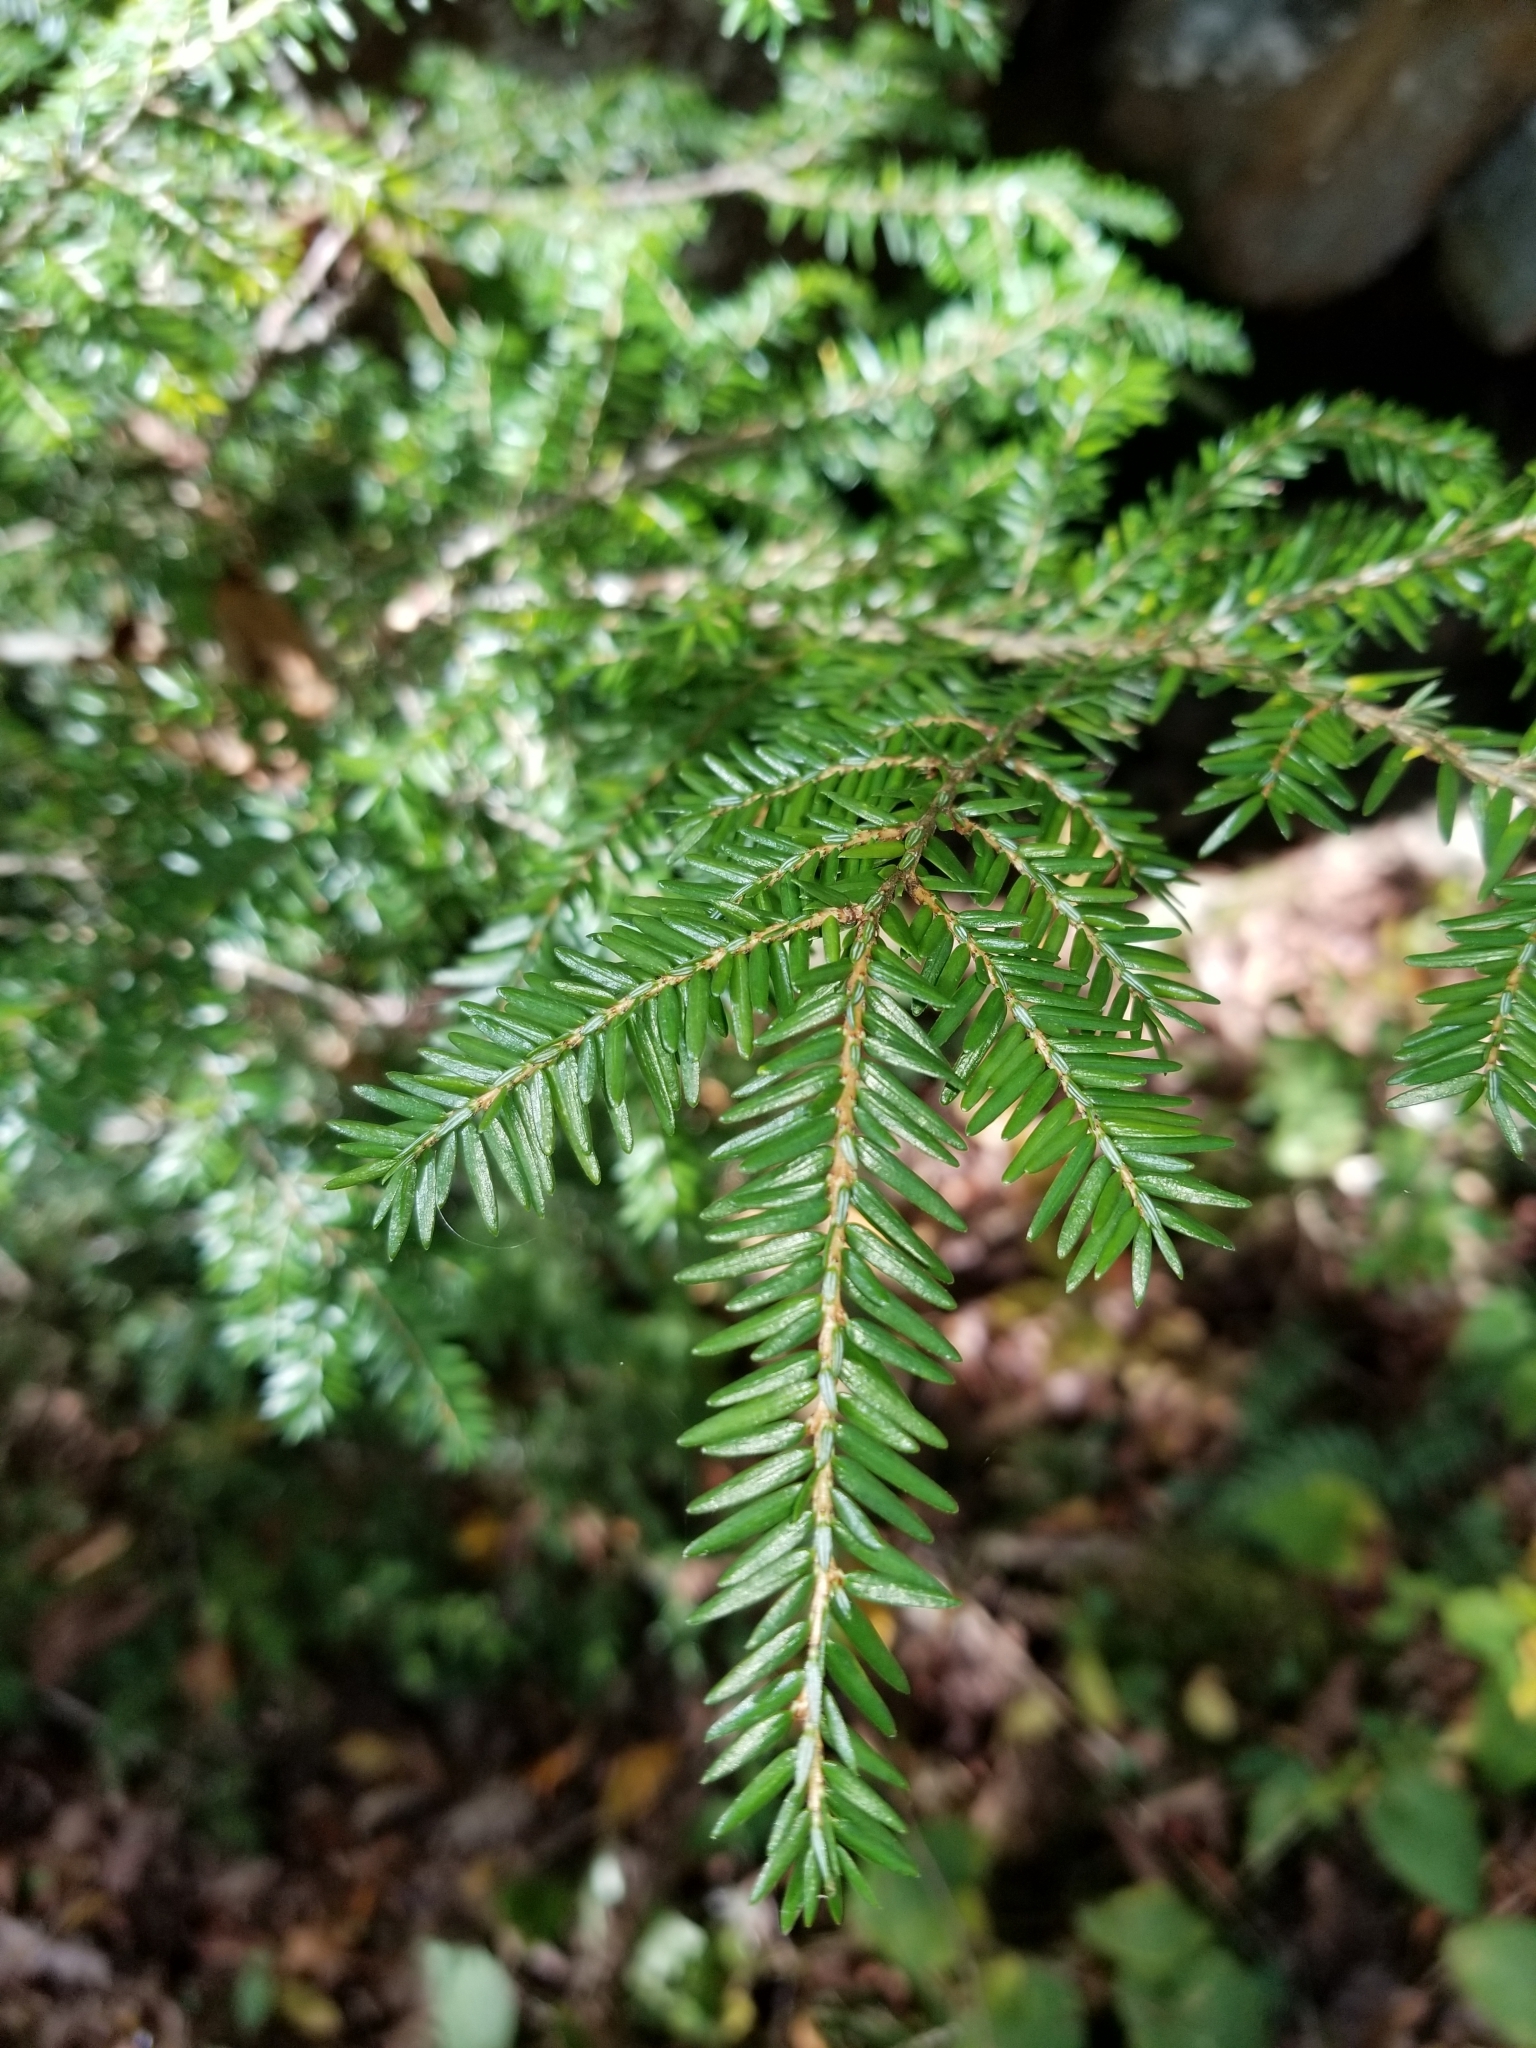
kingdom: Plantae
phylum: Tracheophyta
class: Pinopsida
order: Pinales
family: Pinaceae
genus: Tsuga
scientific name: Tsuga canadensis
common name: Eastern hemlock
